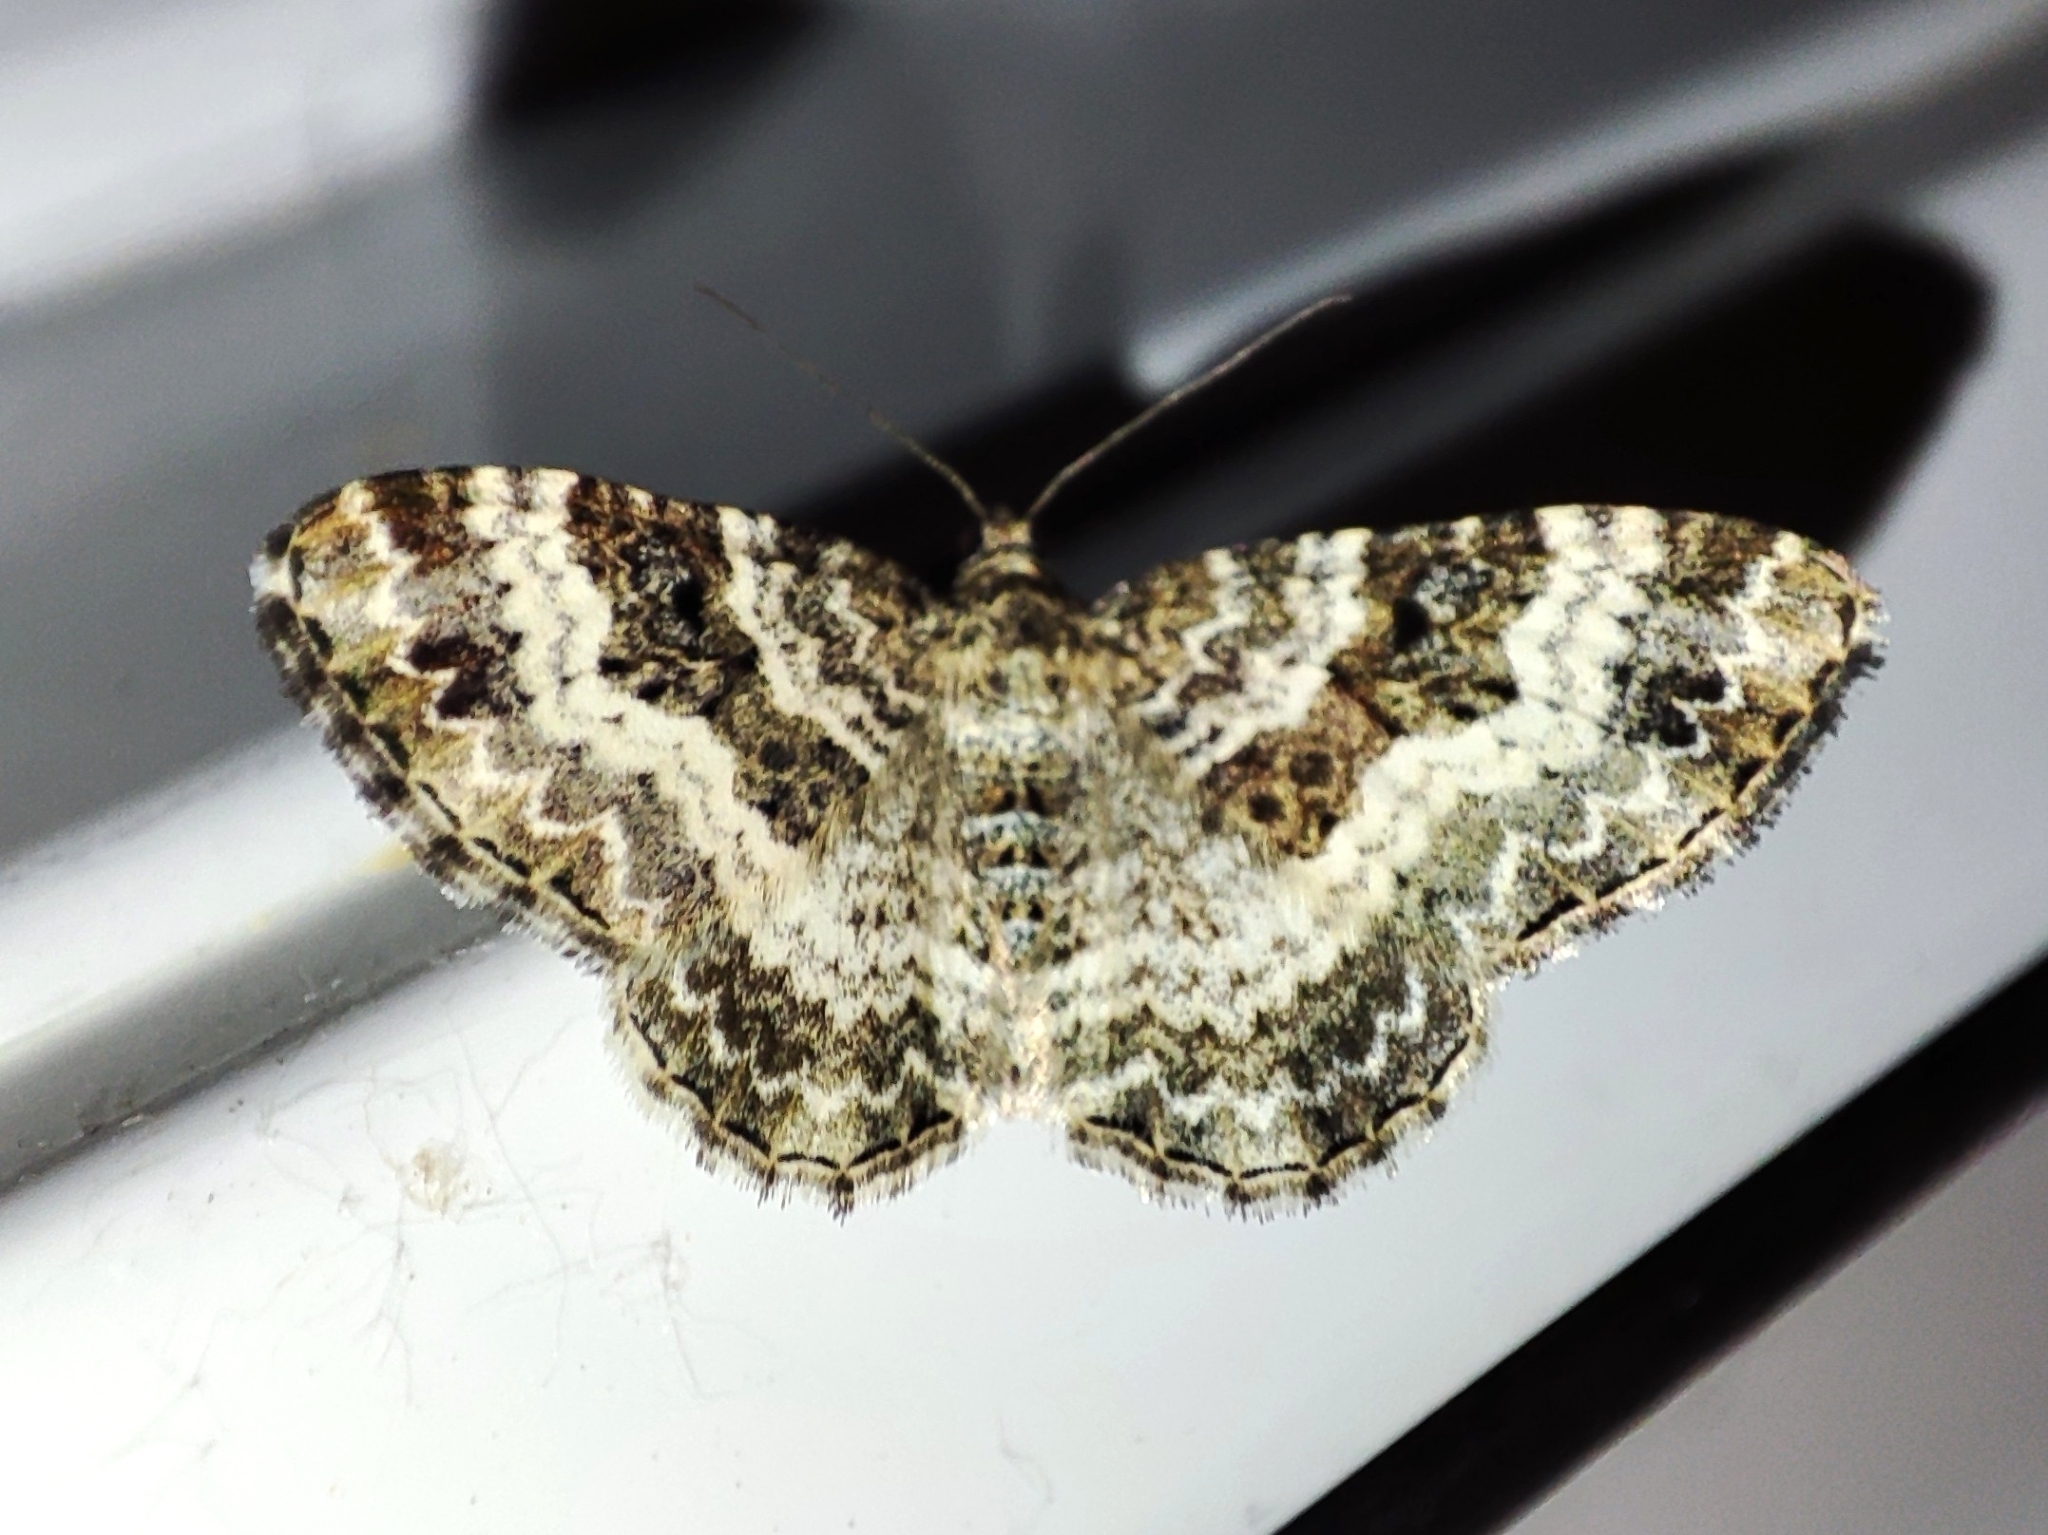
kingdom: Animalia
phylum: Arthropoda
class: Insecta
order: Lepidoptera
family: Geometridae
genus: Epirrhoe
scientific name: Epirrhoe alternata
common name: Common carpet
